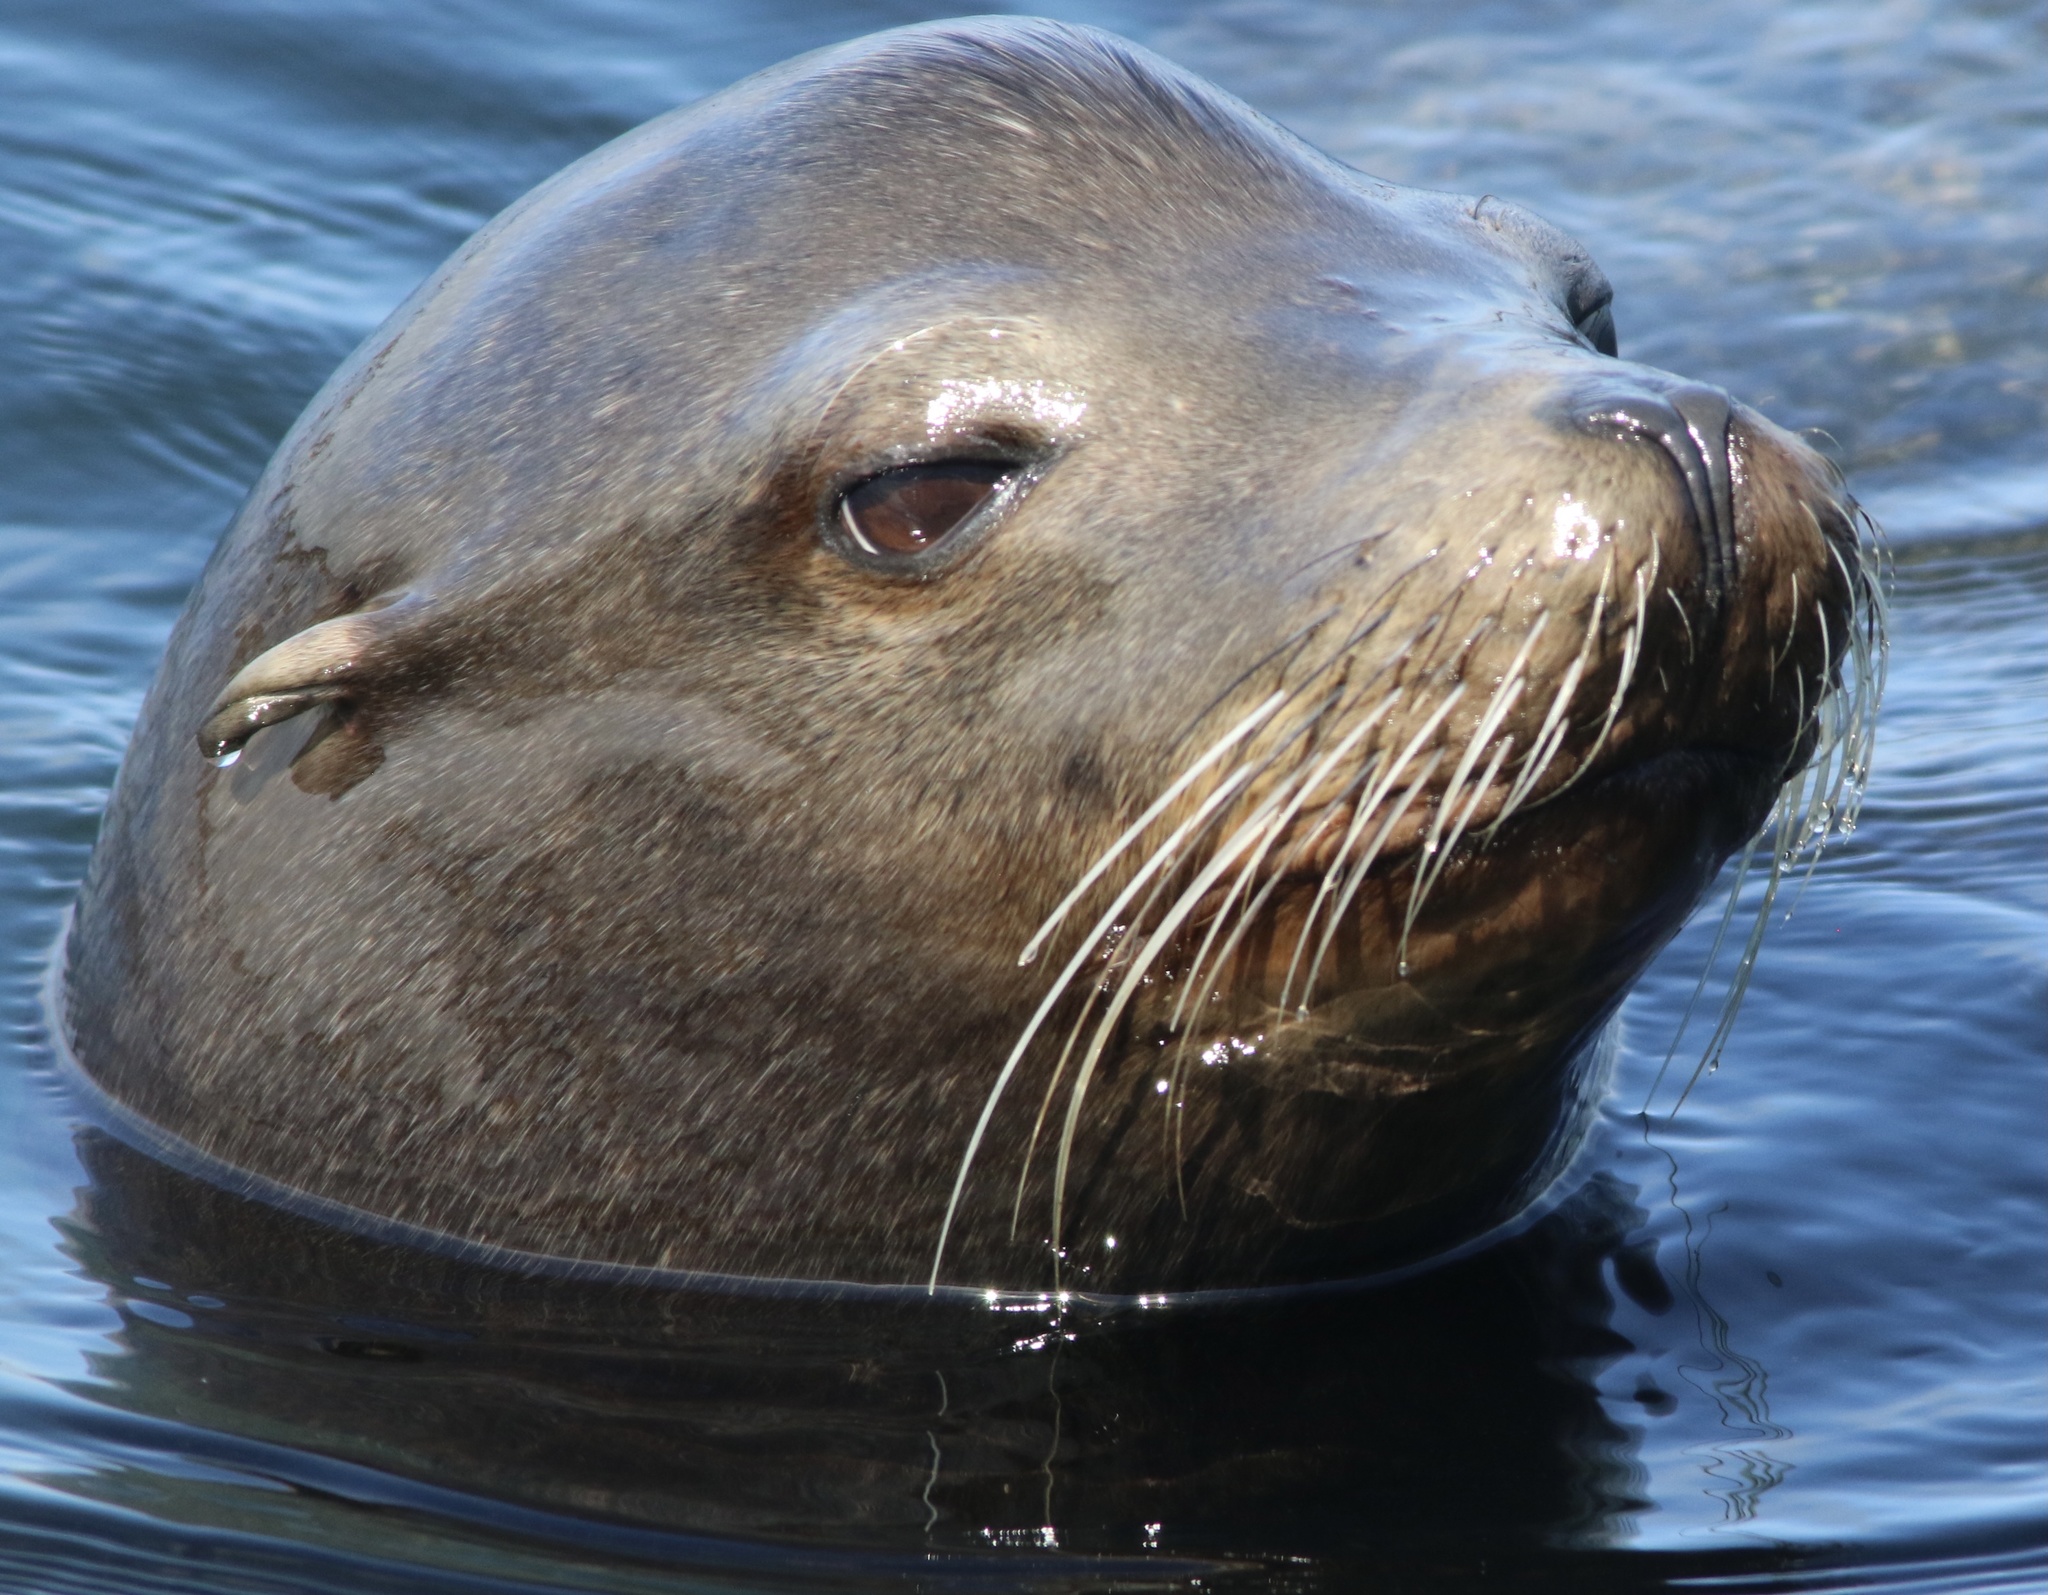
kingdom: Animalia
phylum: Chordata
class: Mammalia
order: Carnivora
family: Otariidae
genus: Zalophus
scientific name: Zalophus californianus
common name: California sea lion
